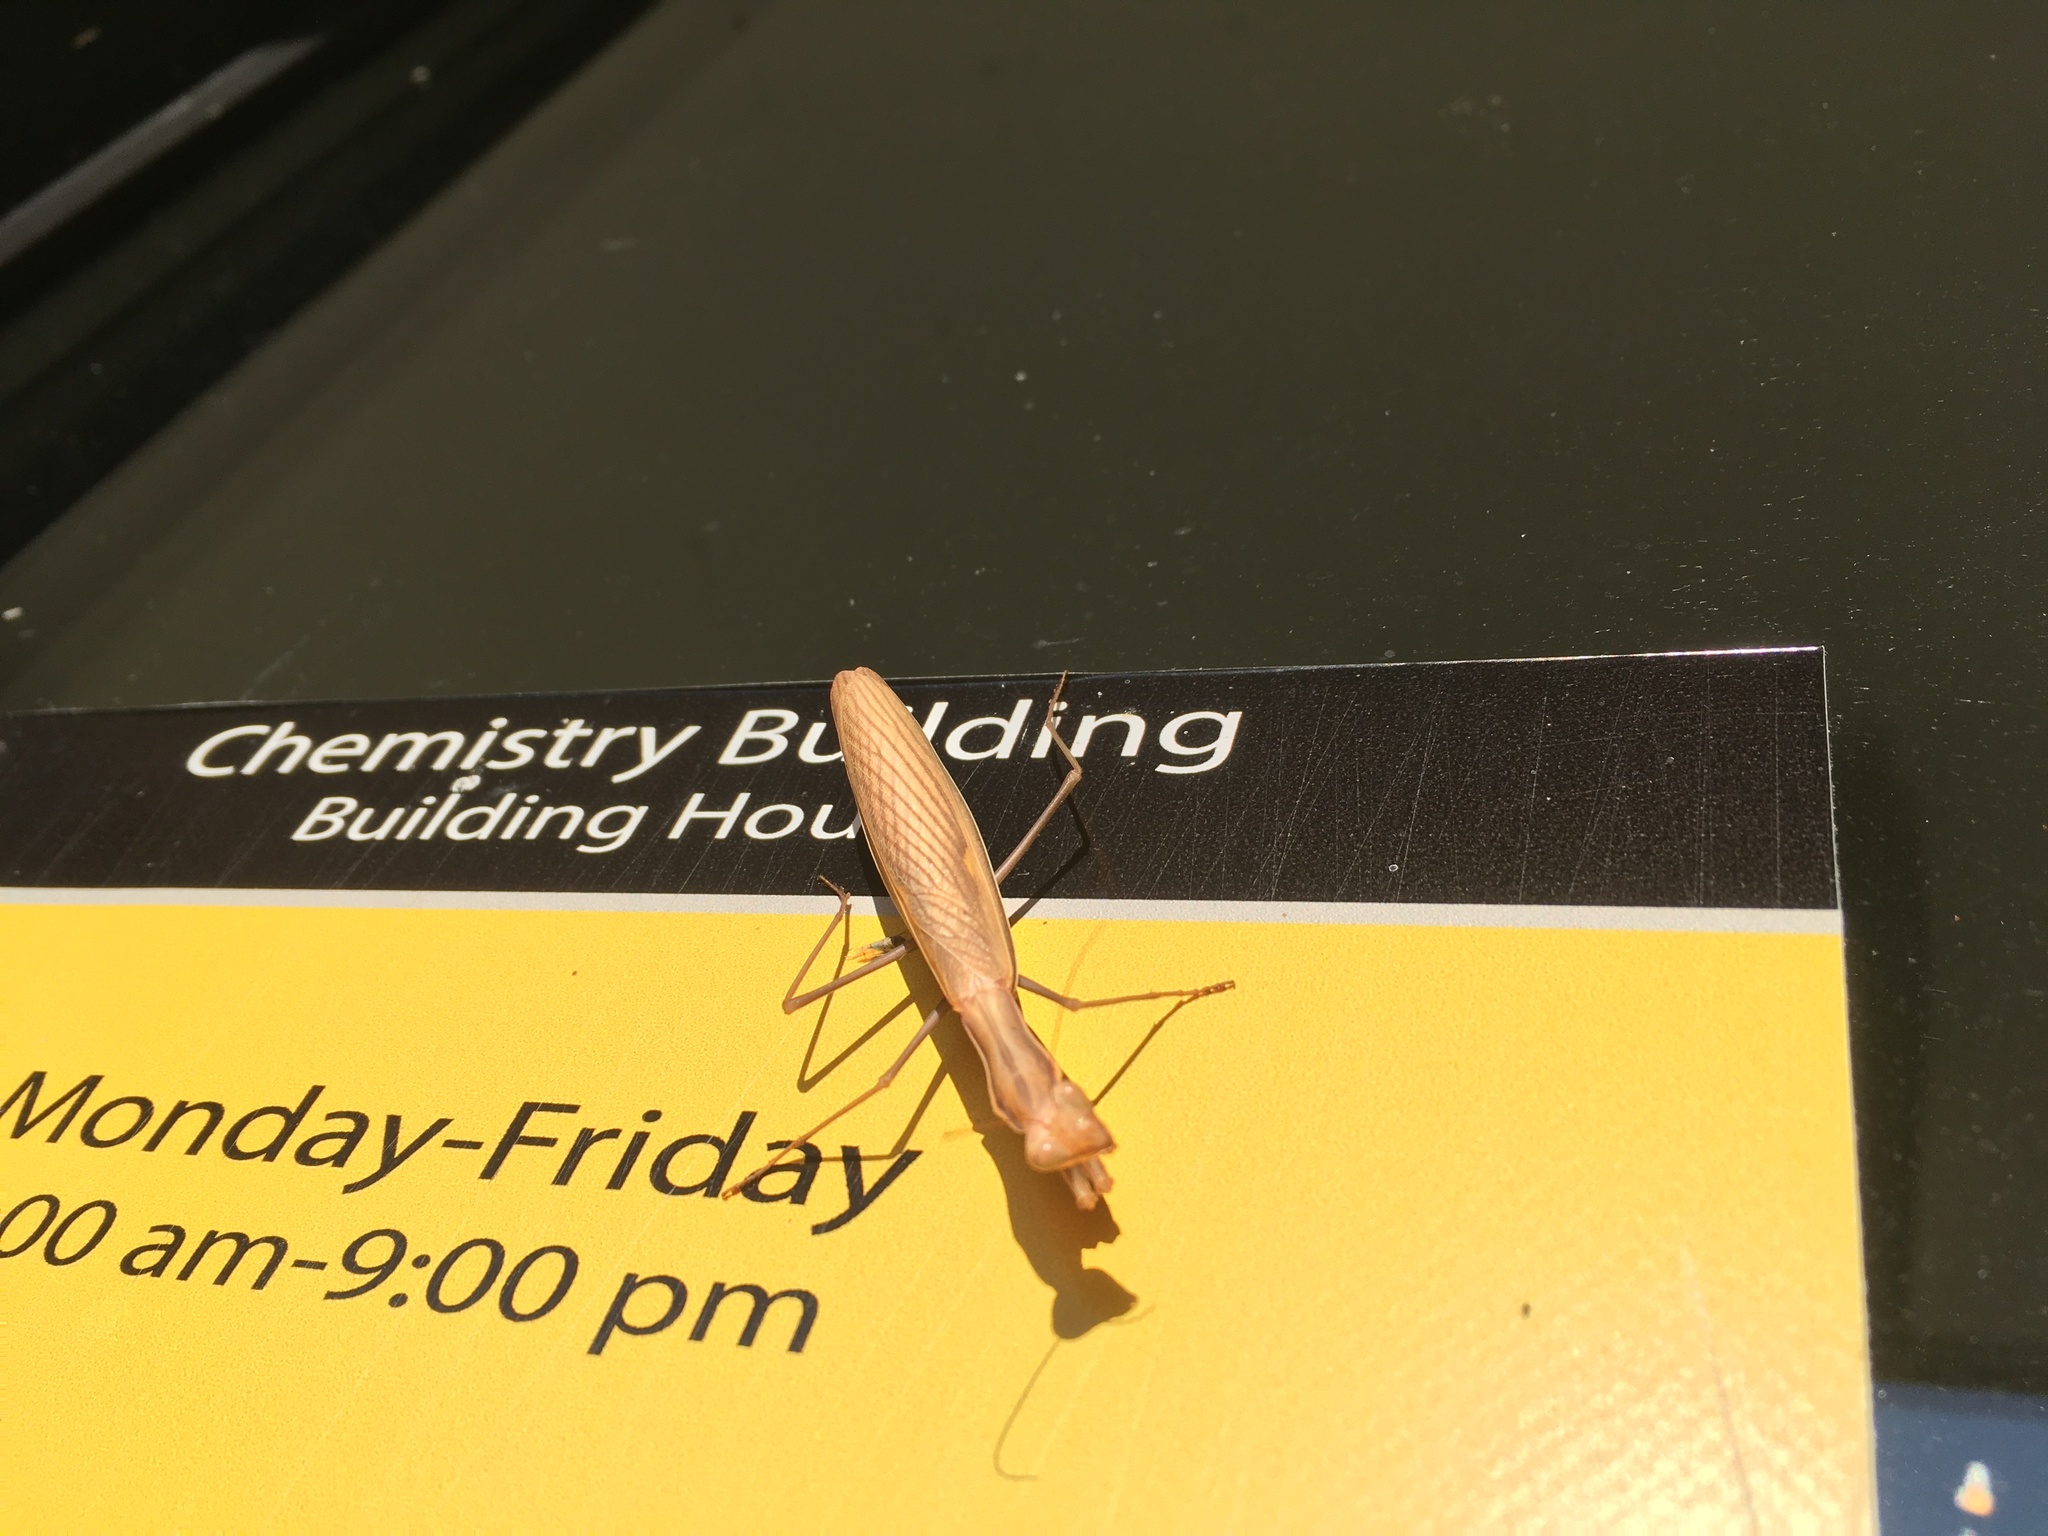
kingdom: Animalia
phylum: Arthropoda
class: Insecta
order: Mantodea
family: Mantidae
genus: Mantis
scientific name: Mantis religiosa
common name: Praying mantis
